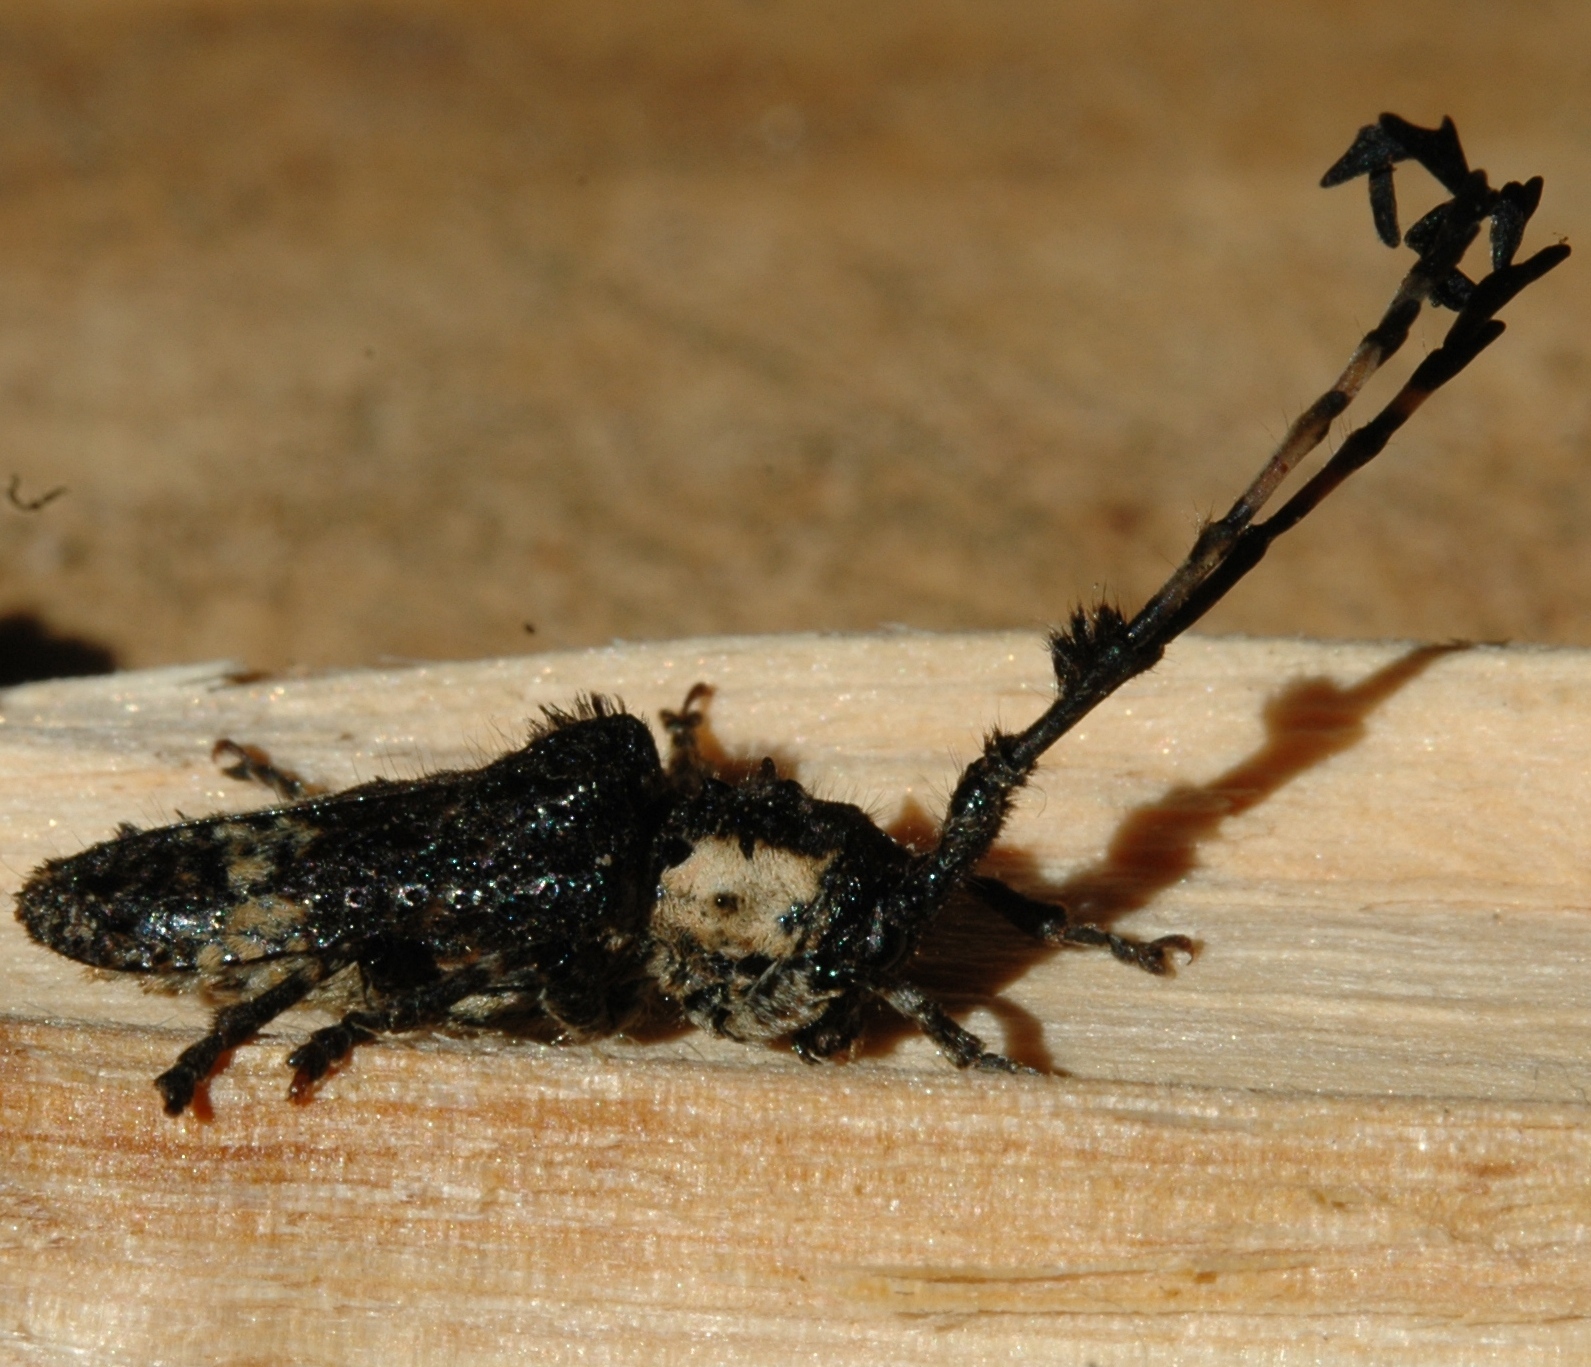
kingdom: Animalia
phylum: Arthropoda
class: Insecta
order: Coleoptera
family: Cerambycidae
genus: Cloniocerus
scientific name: Cloniocerus kraussii
